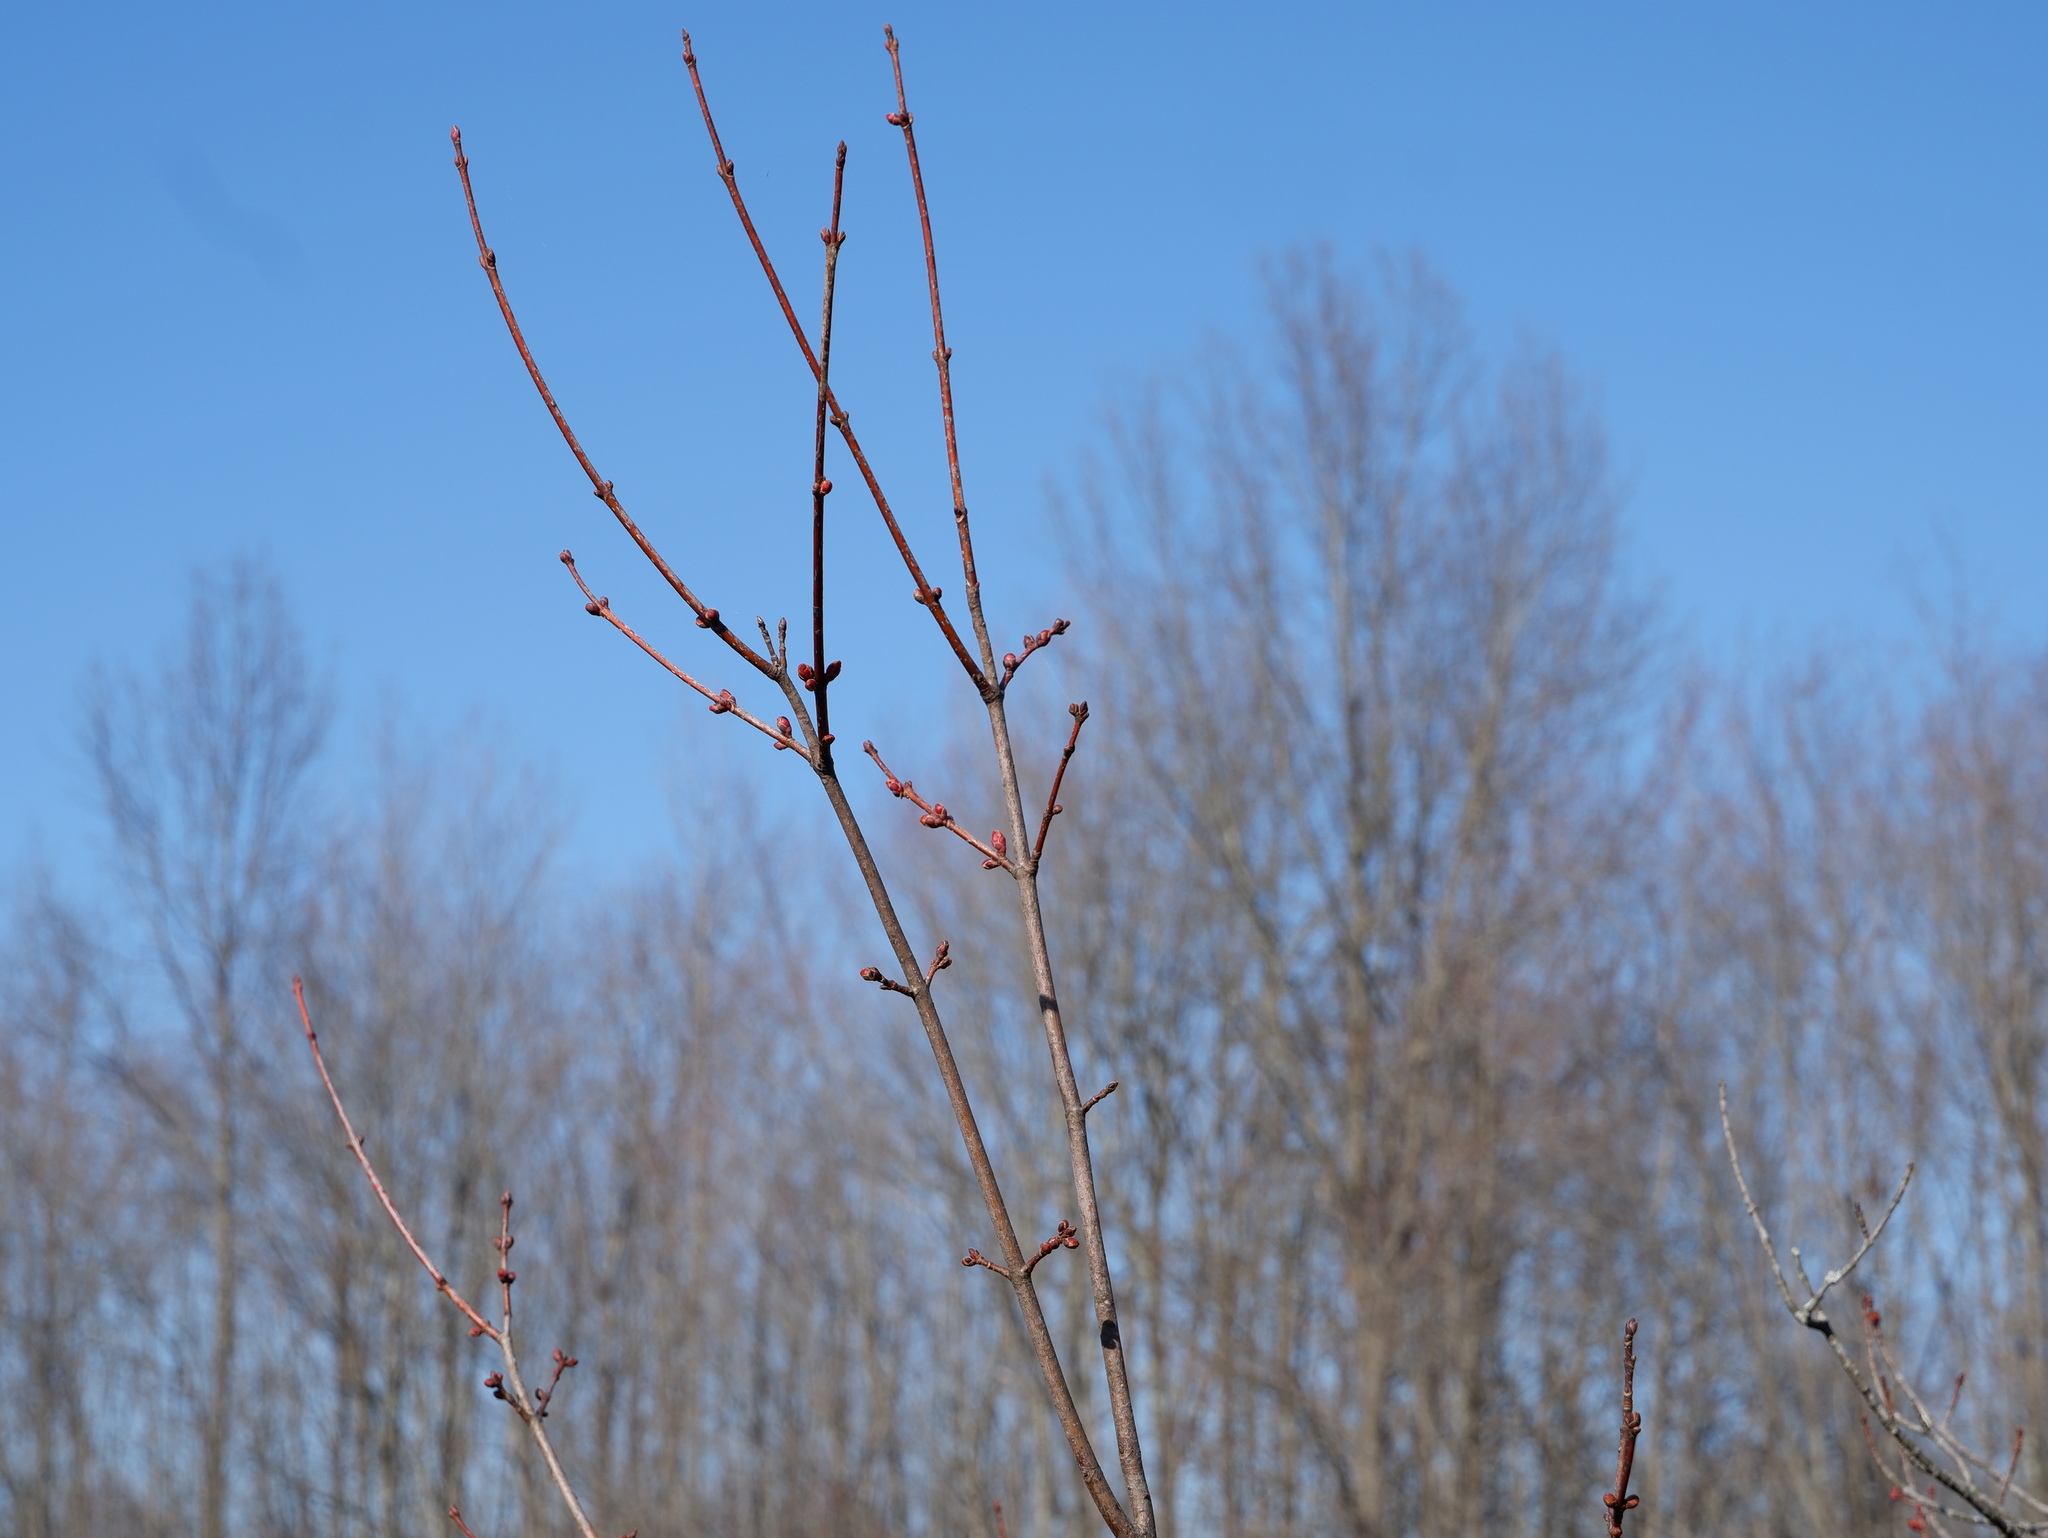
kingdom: Plantae
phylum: Tracheophyta
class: Magnoliopsida
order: Sapindales
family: Sapindaceae
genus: Acer
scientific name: Acer rubrum
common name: Red maple
